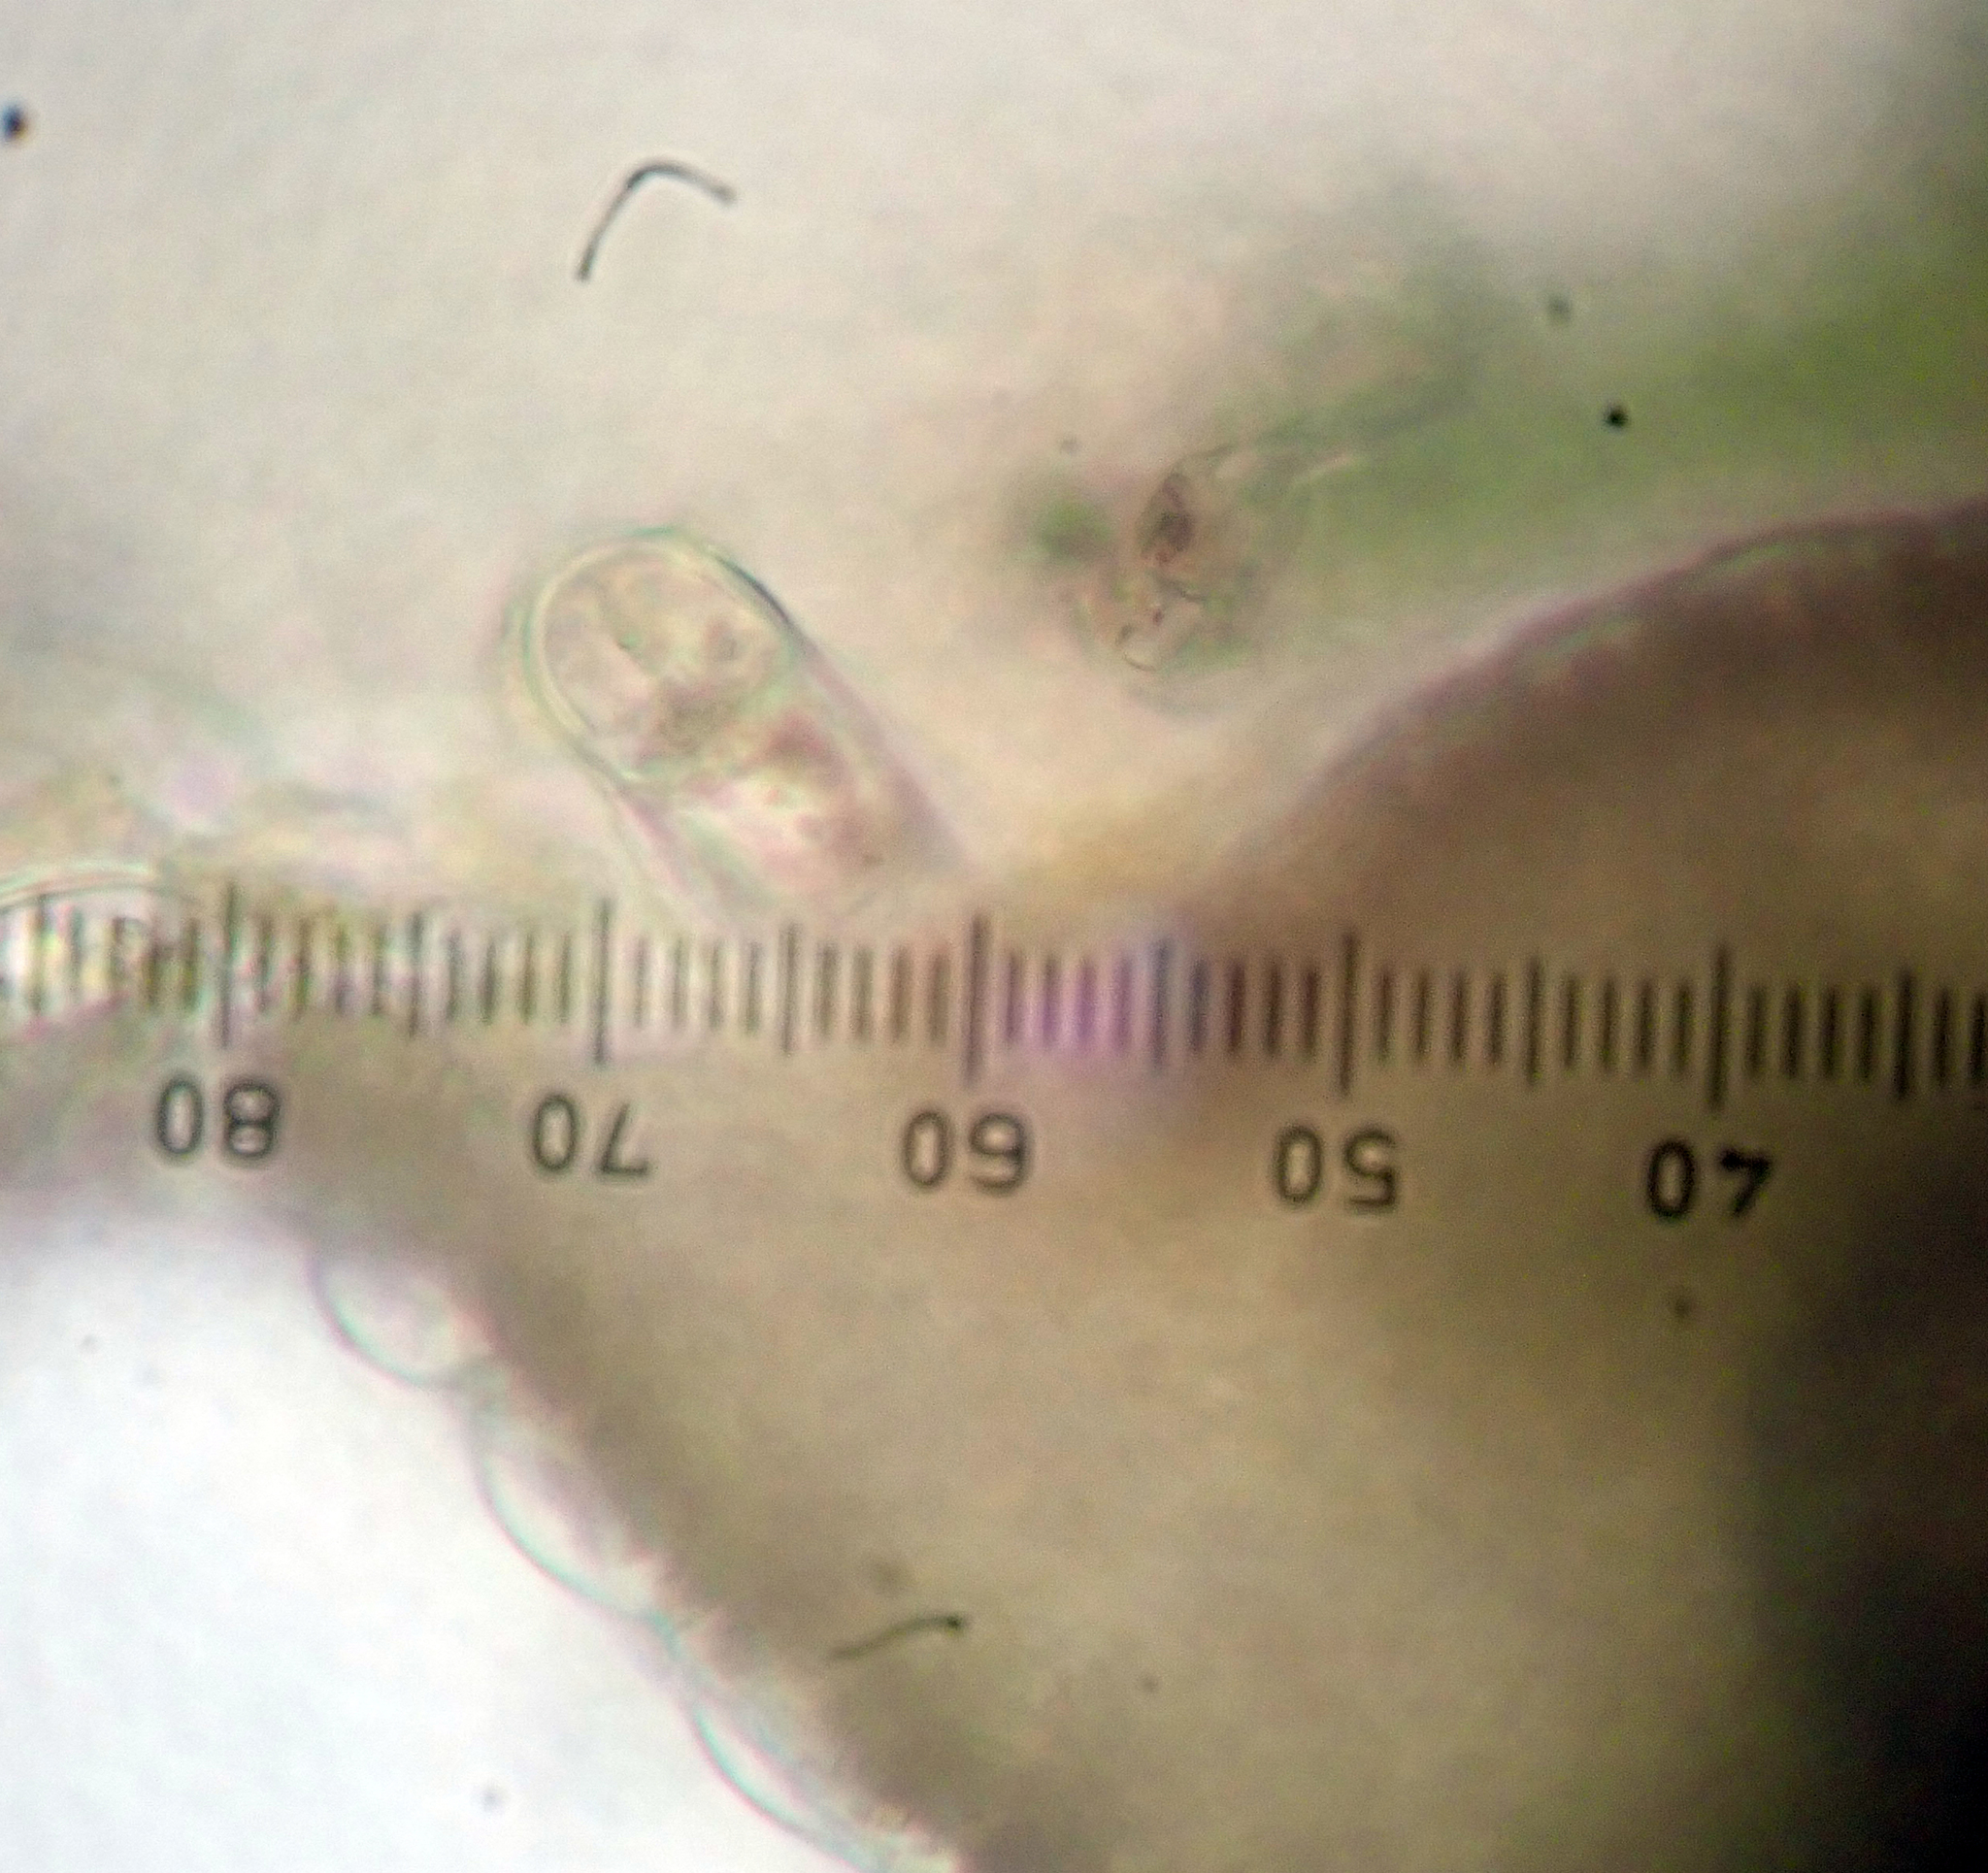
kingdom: Plantae
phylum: Marchantiophyta
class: Jungermanniopsida
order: Porellales
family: Lejeuneaceae
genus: Lejeunea
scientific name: Lejeunea oracola
